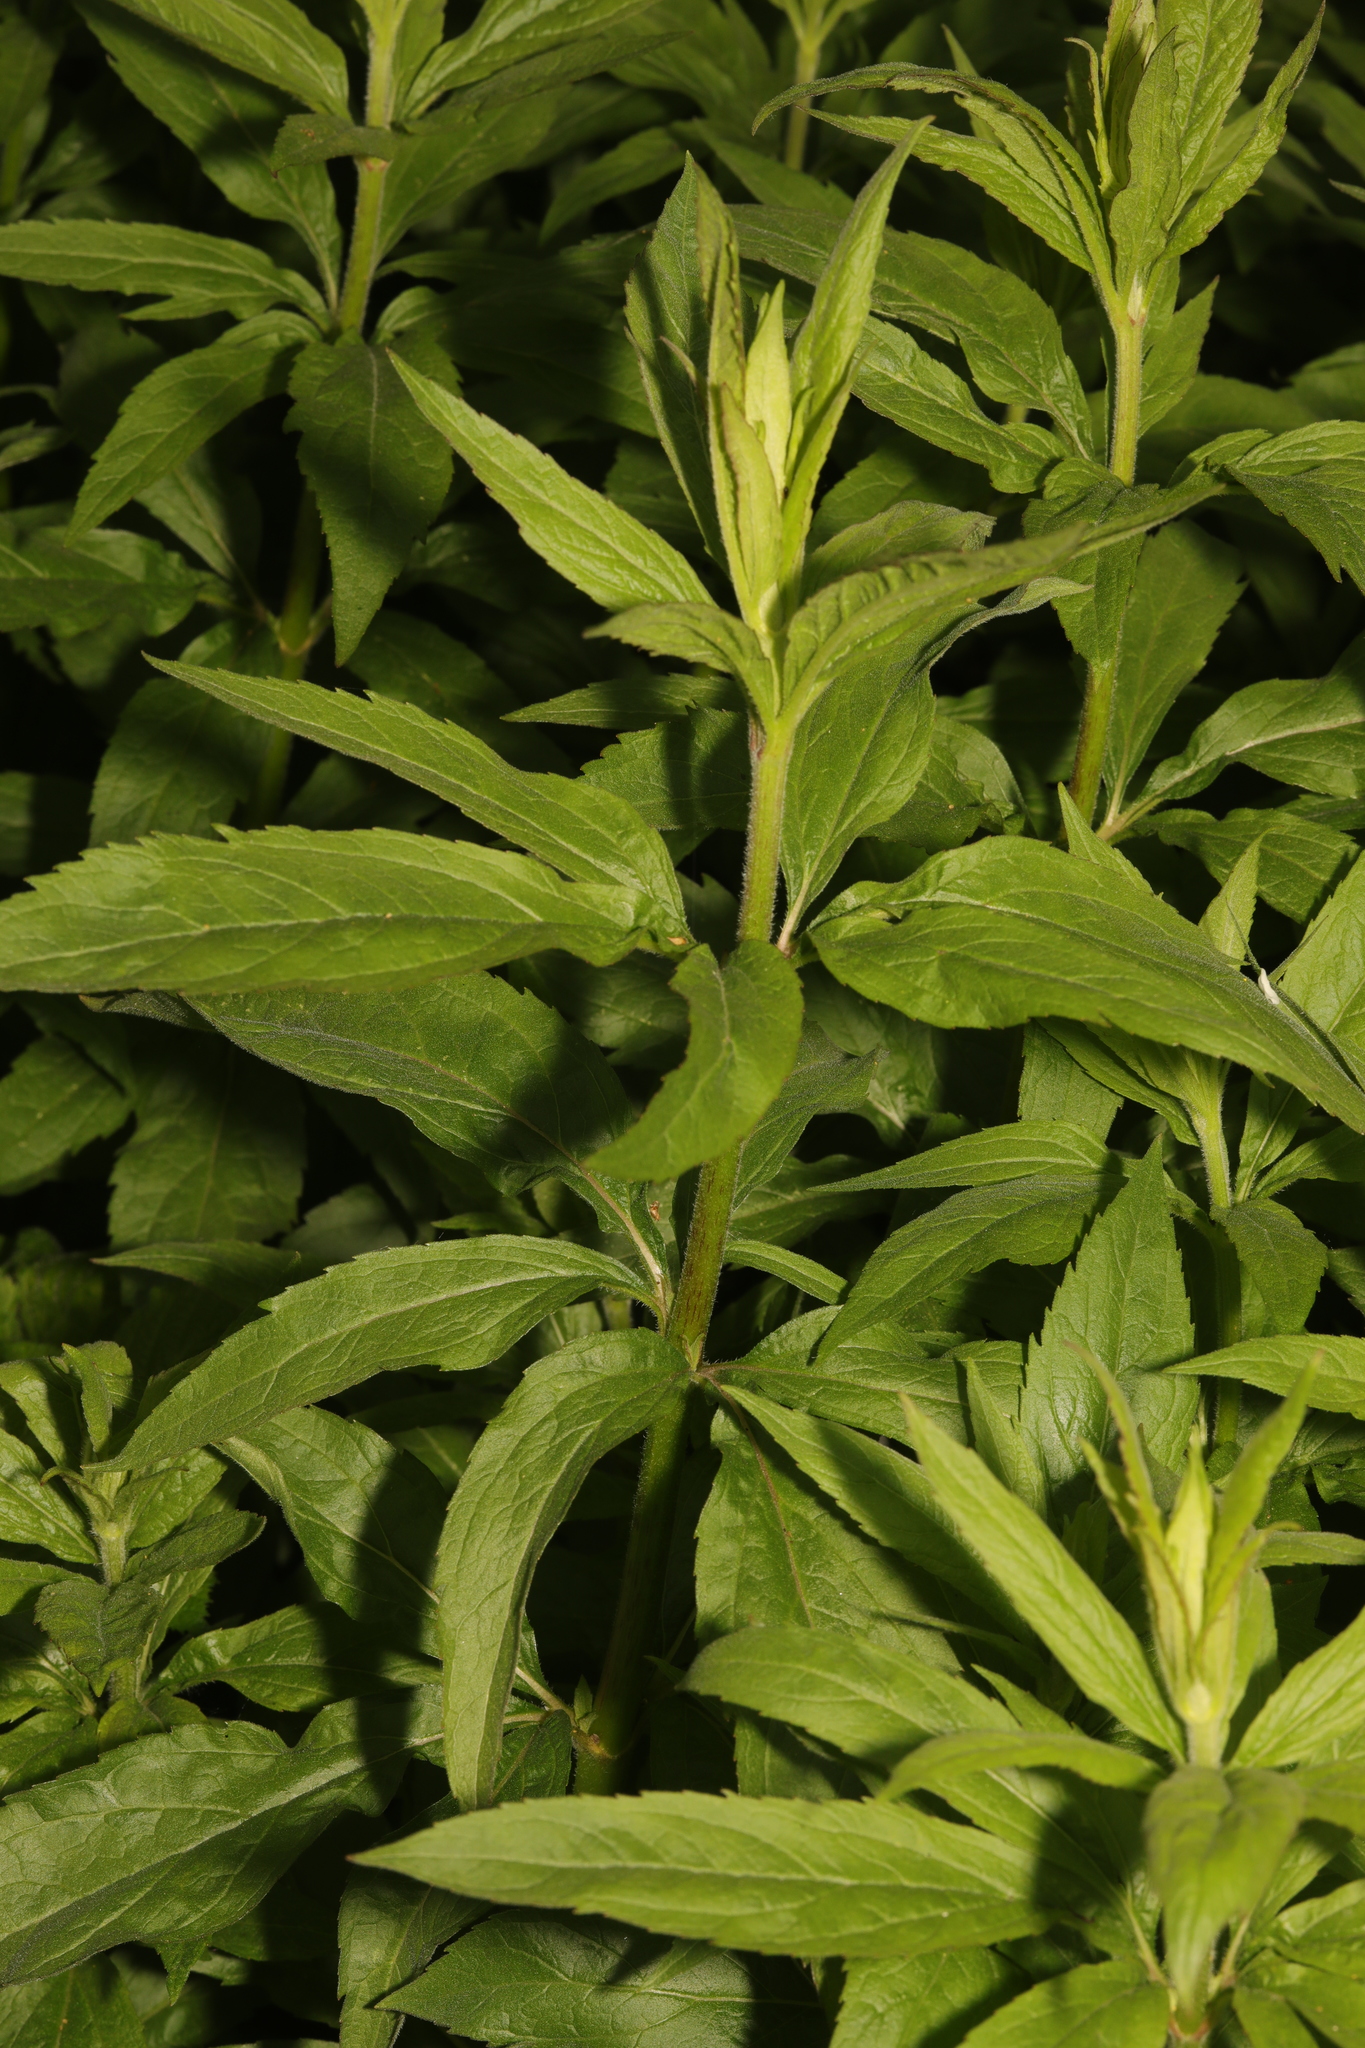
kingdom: Plantae
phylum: Tracheophyta
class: Magnoliopsida
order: Asterales
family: Asteraceae
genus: Eupatorium
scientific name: Eupatorium cannabinum
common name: Hemp-agrimony
